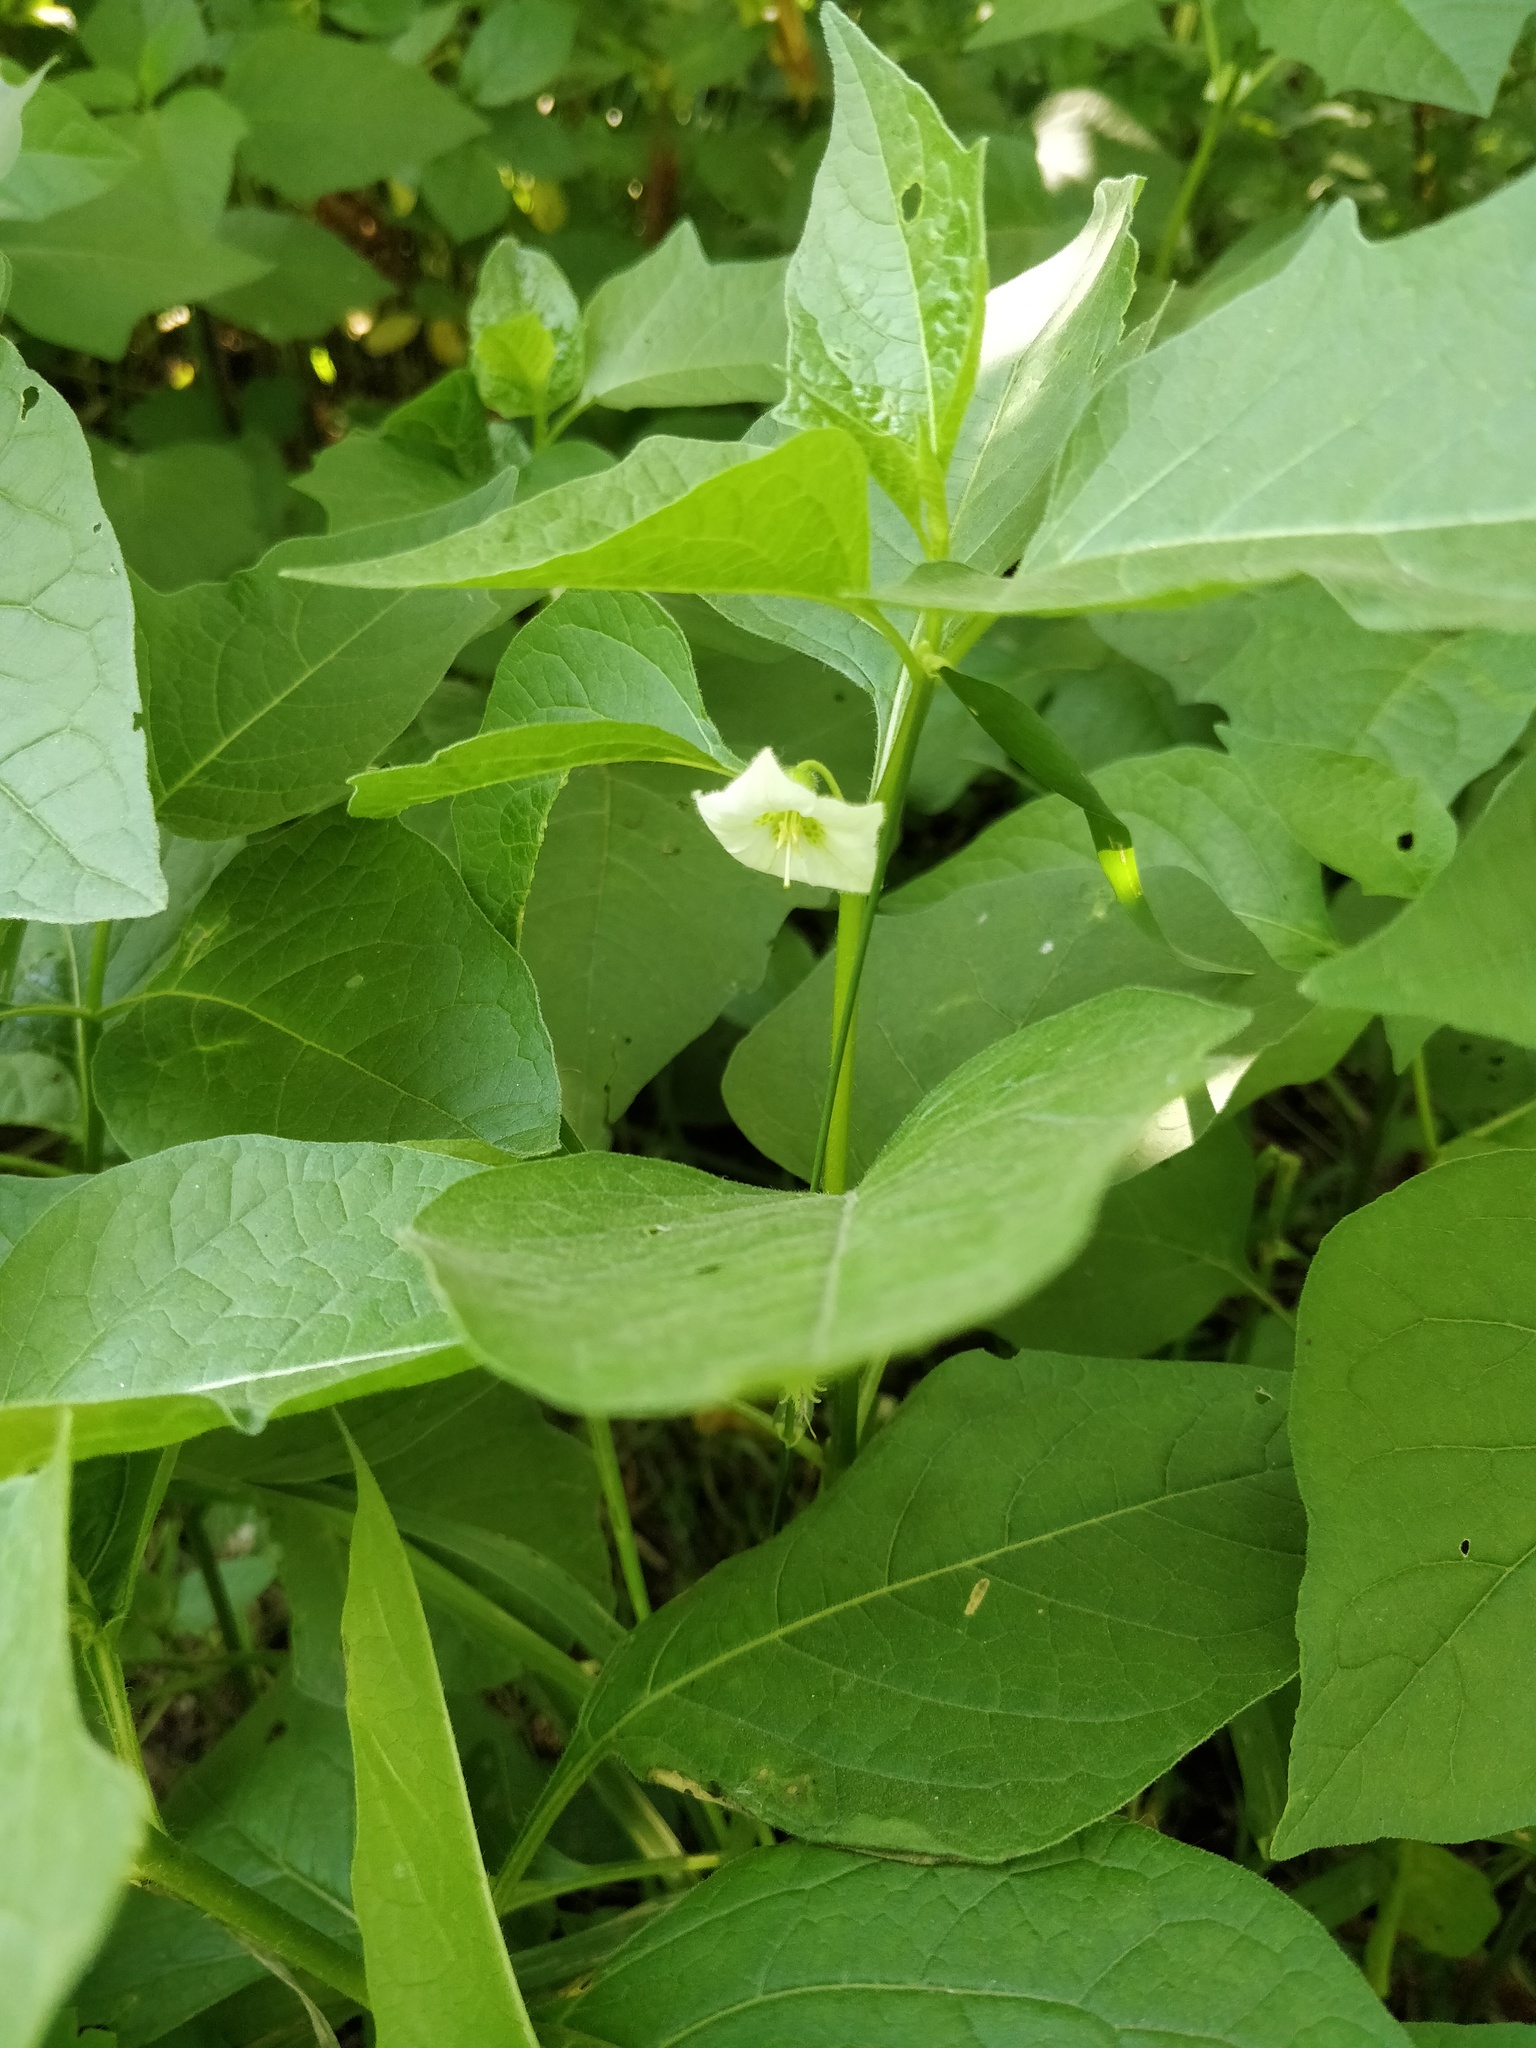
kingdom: Plantae
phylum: Tracheophyta
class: Magnoliopsida
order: Solanales
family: Solanaceae
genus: Alkekengi
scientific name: Alkekengi officinarum
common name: Japanese-lantern
